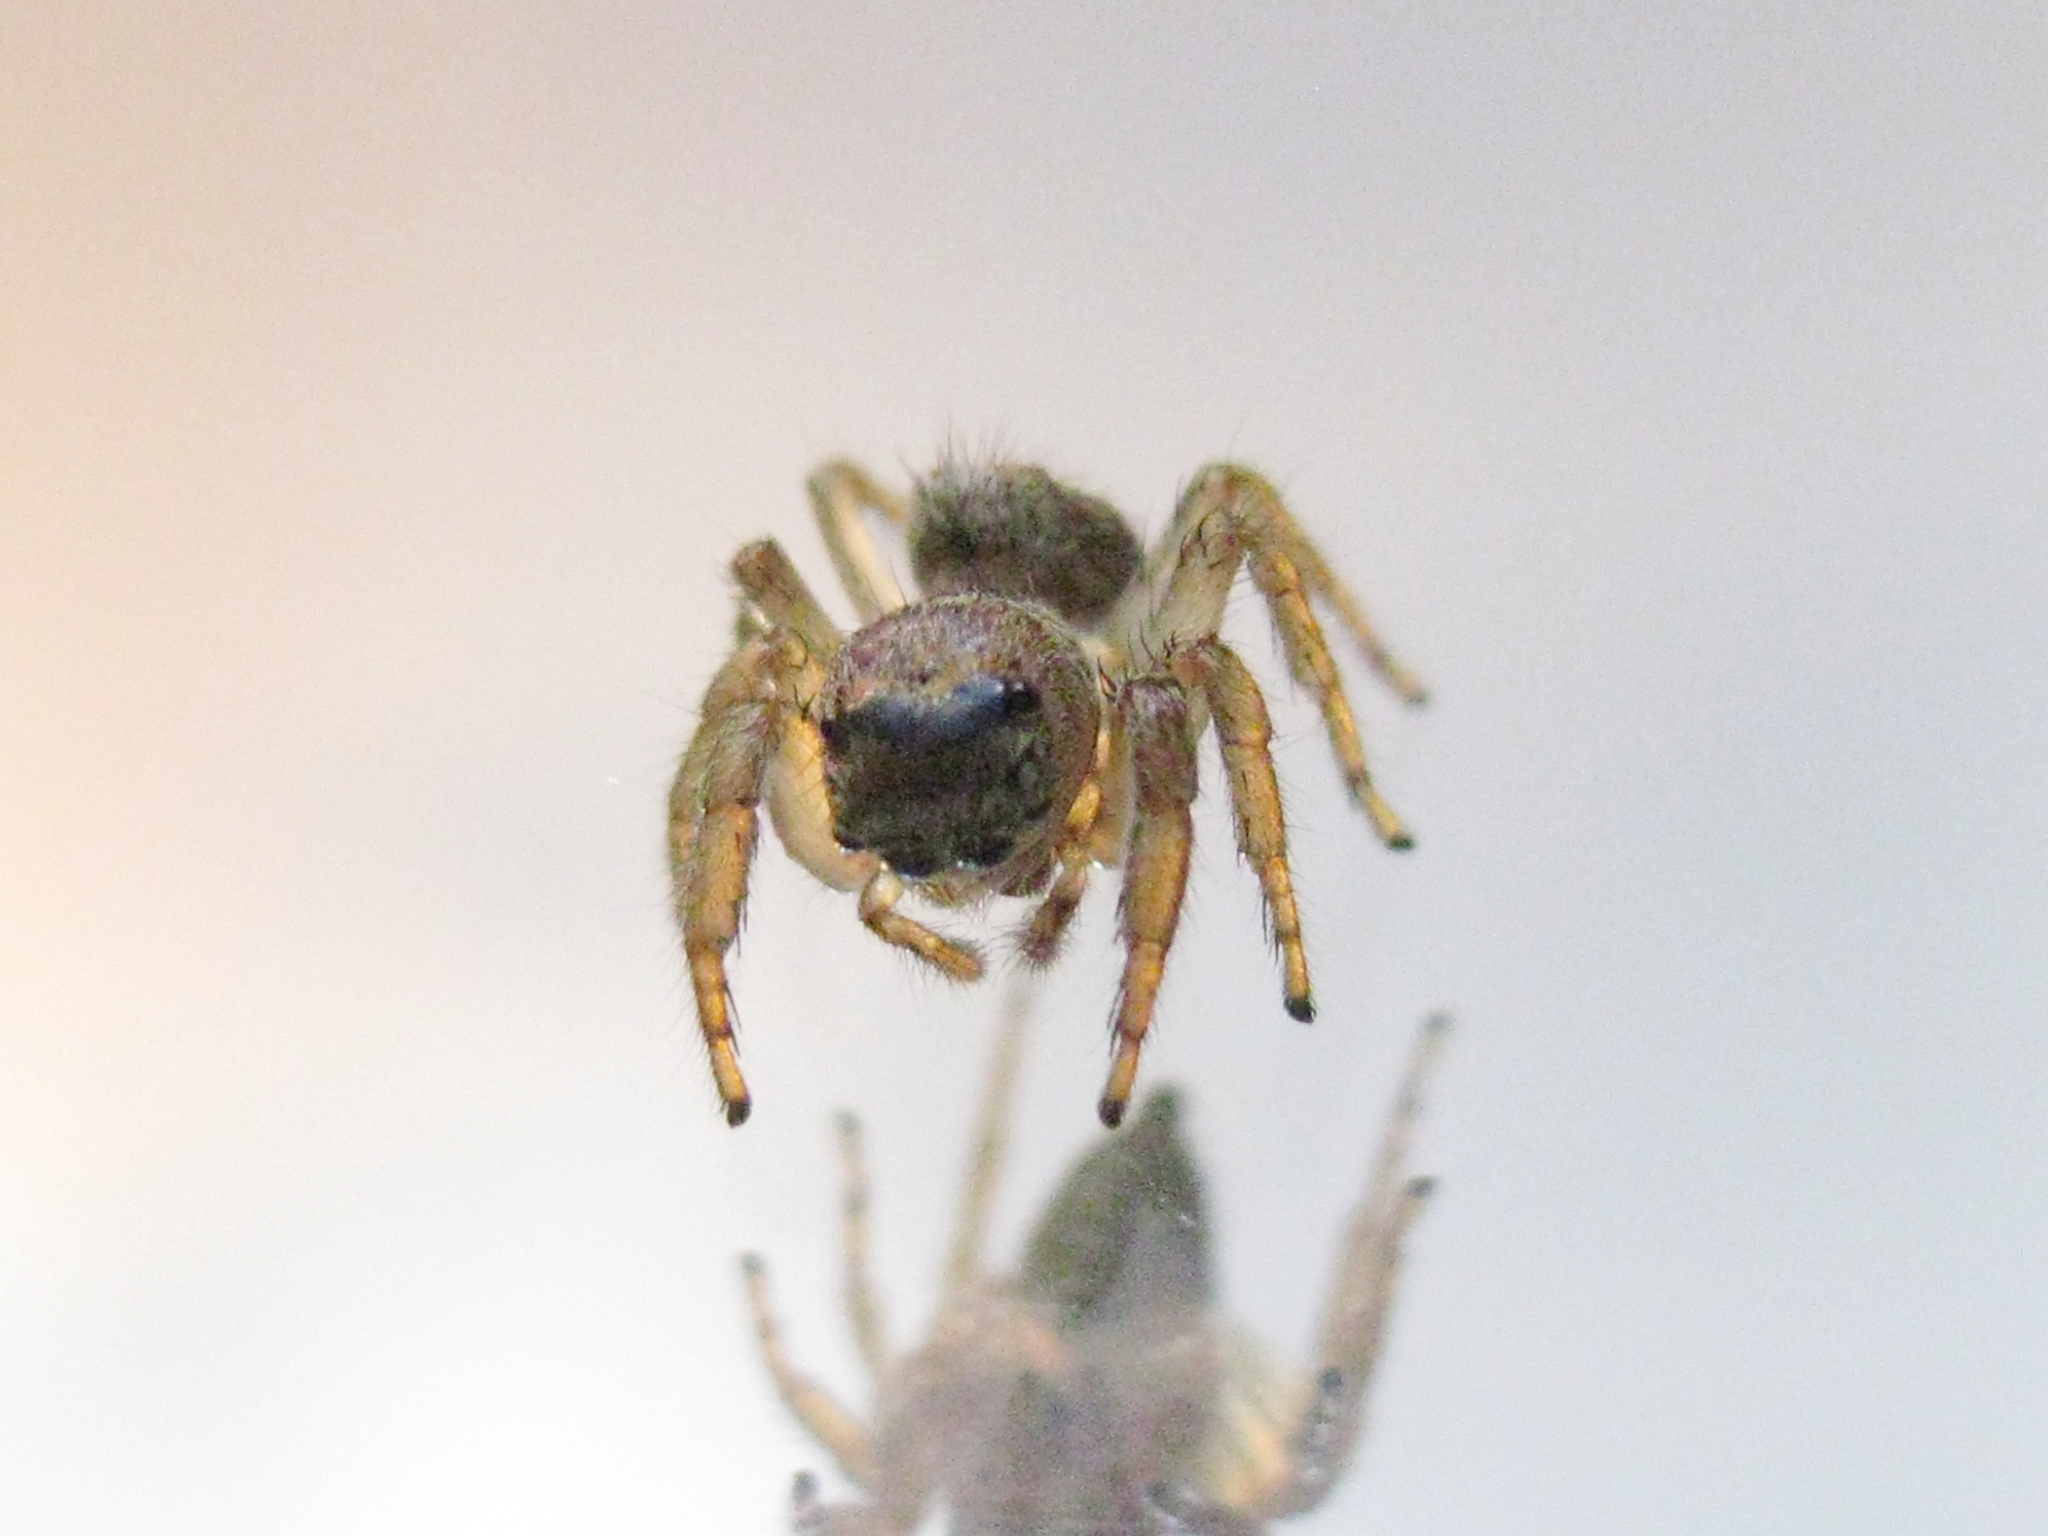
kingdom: Animalia
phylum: Arthropoda
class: Arachnida
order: Araneae
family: Salticidae
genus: Evarcha
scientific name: Evarcha arcuata
